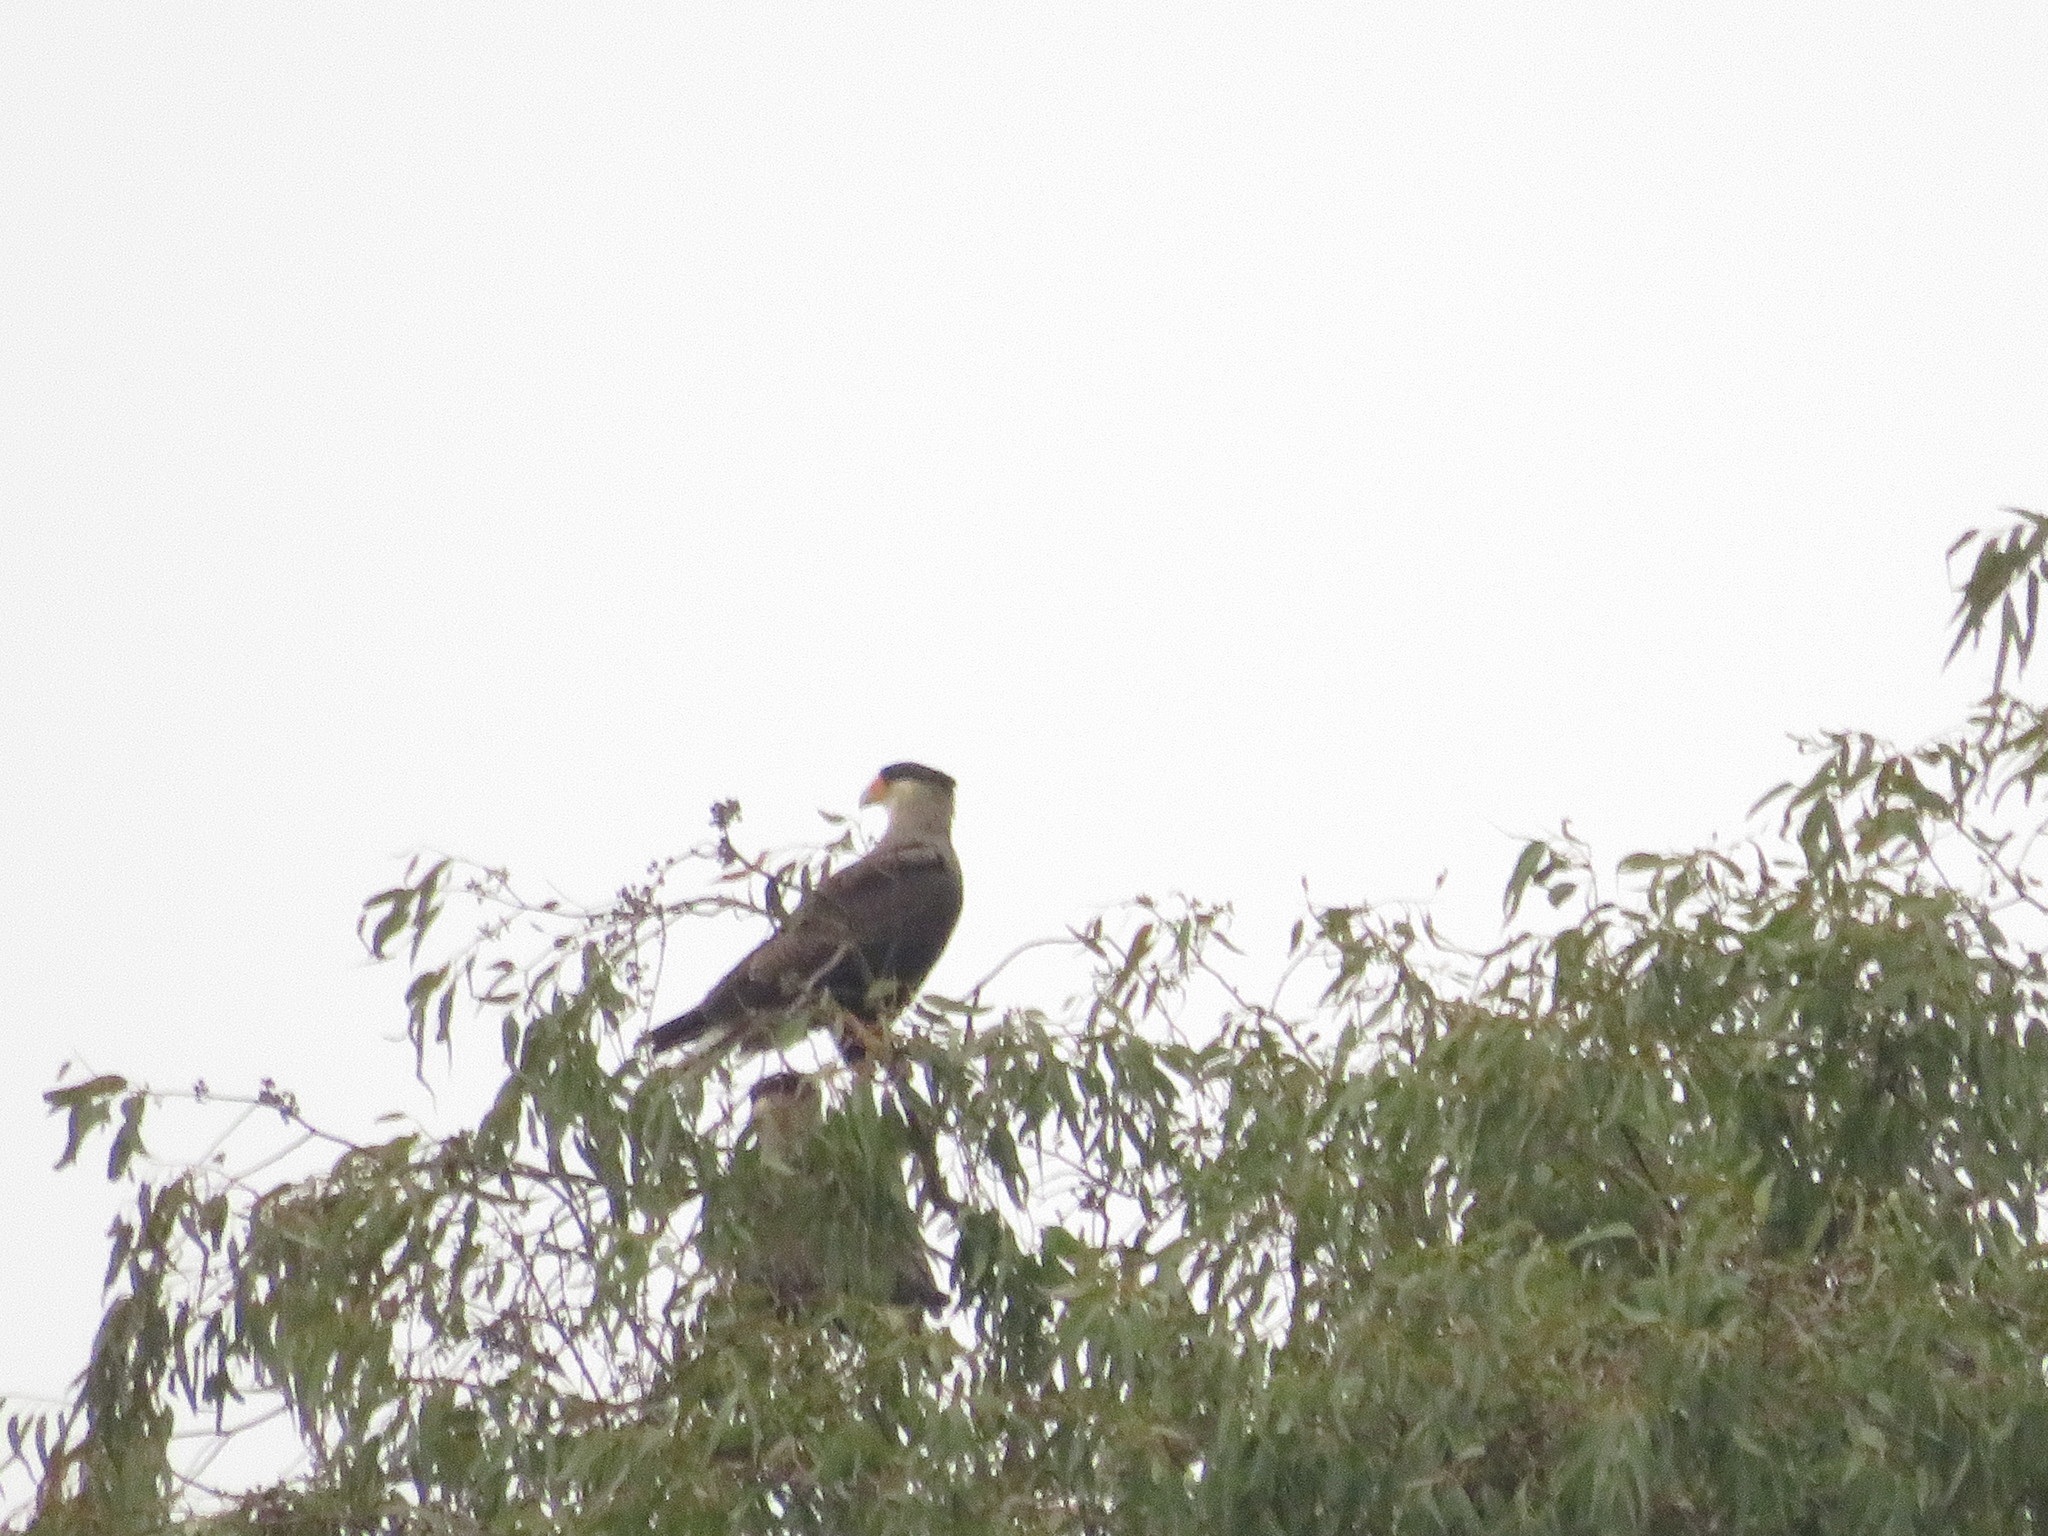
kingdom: Animalia
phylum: Chordata
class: Aves
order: Falconiformes
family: Falconidae
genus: Caracara
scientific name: Caracara plancus
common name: Southern caracara
